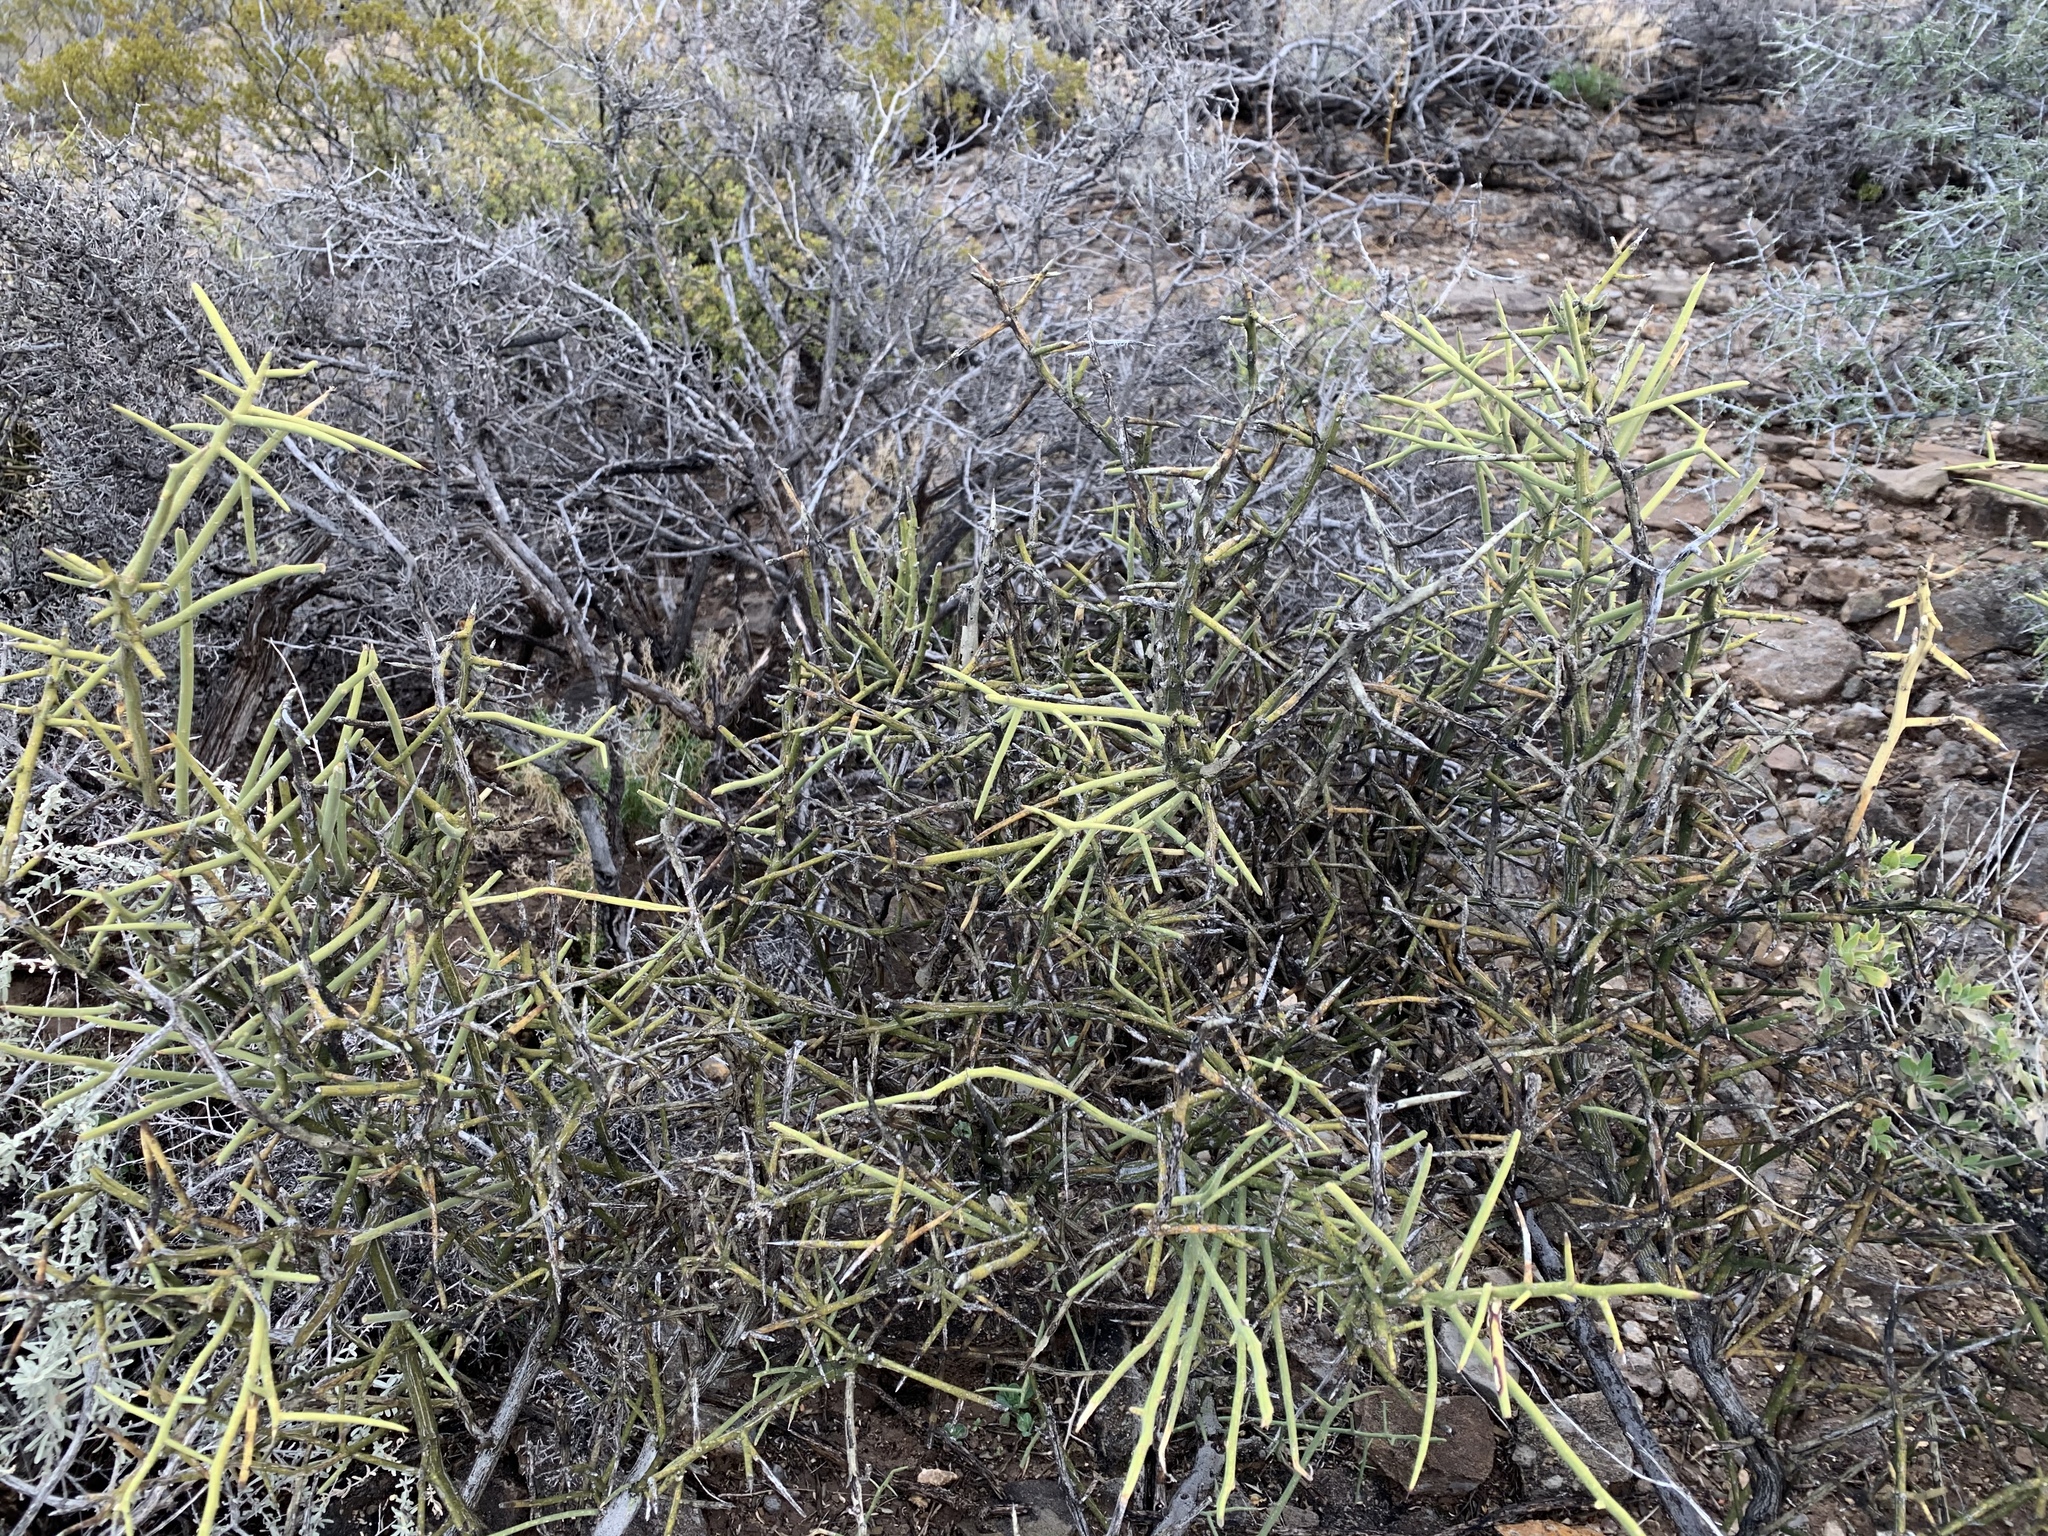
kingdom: Plantae
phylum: Tracheophyta
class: Magnoliopsida
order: Brassicales
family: Koeberliniaceae
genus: Koeberlinia
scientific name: Koeberlinia spinosa
